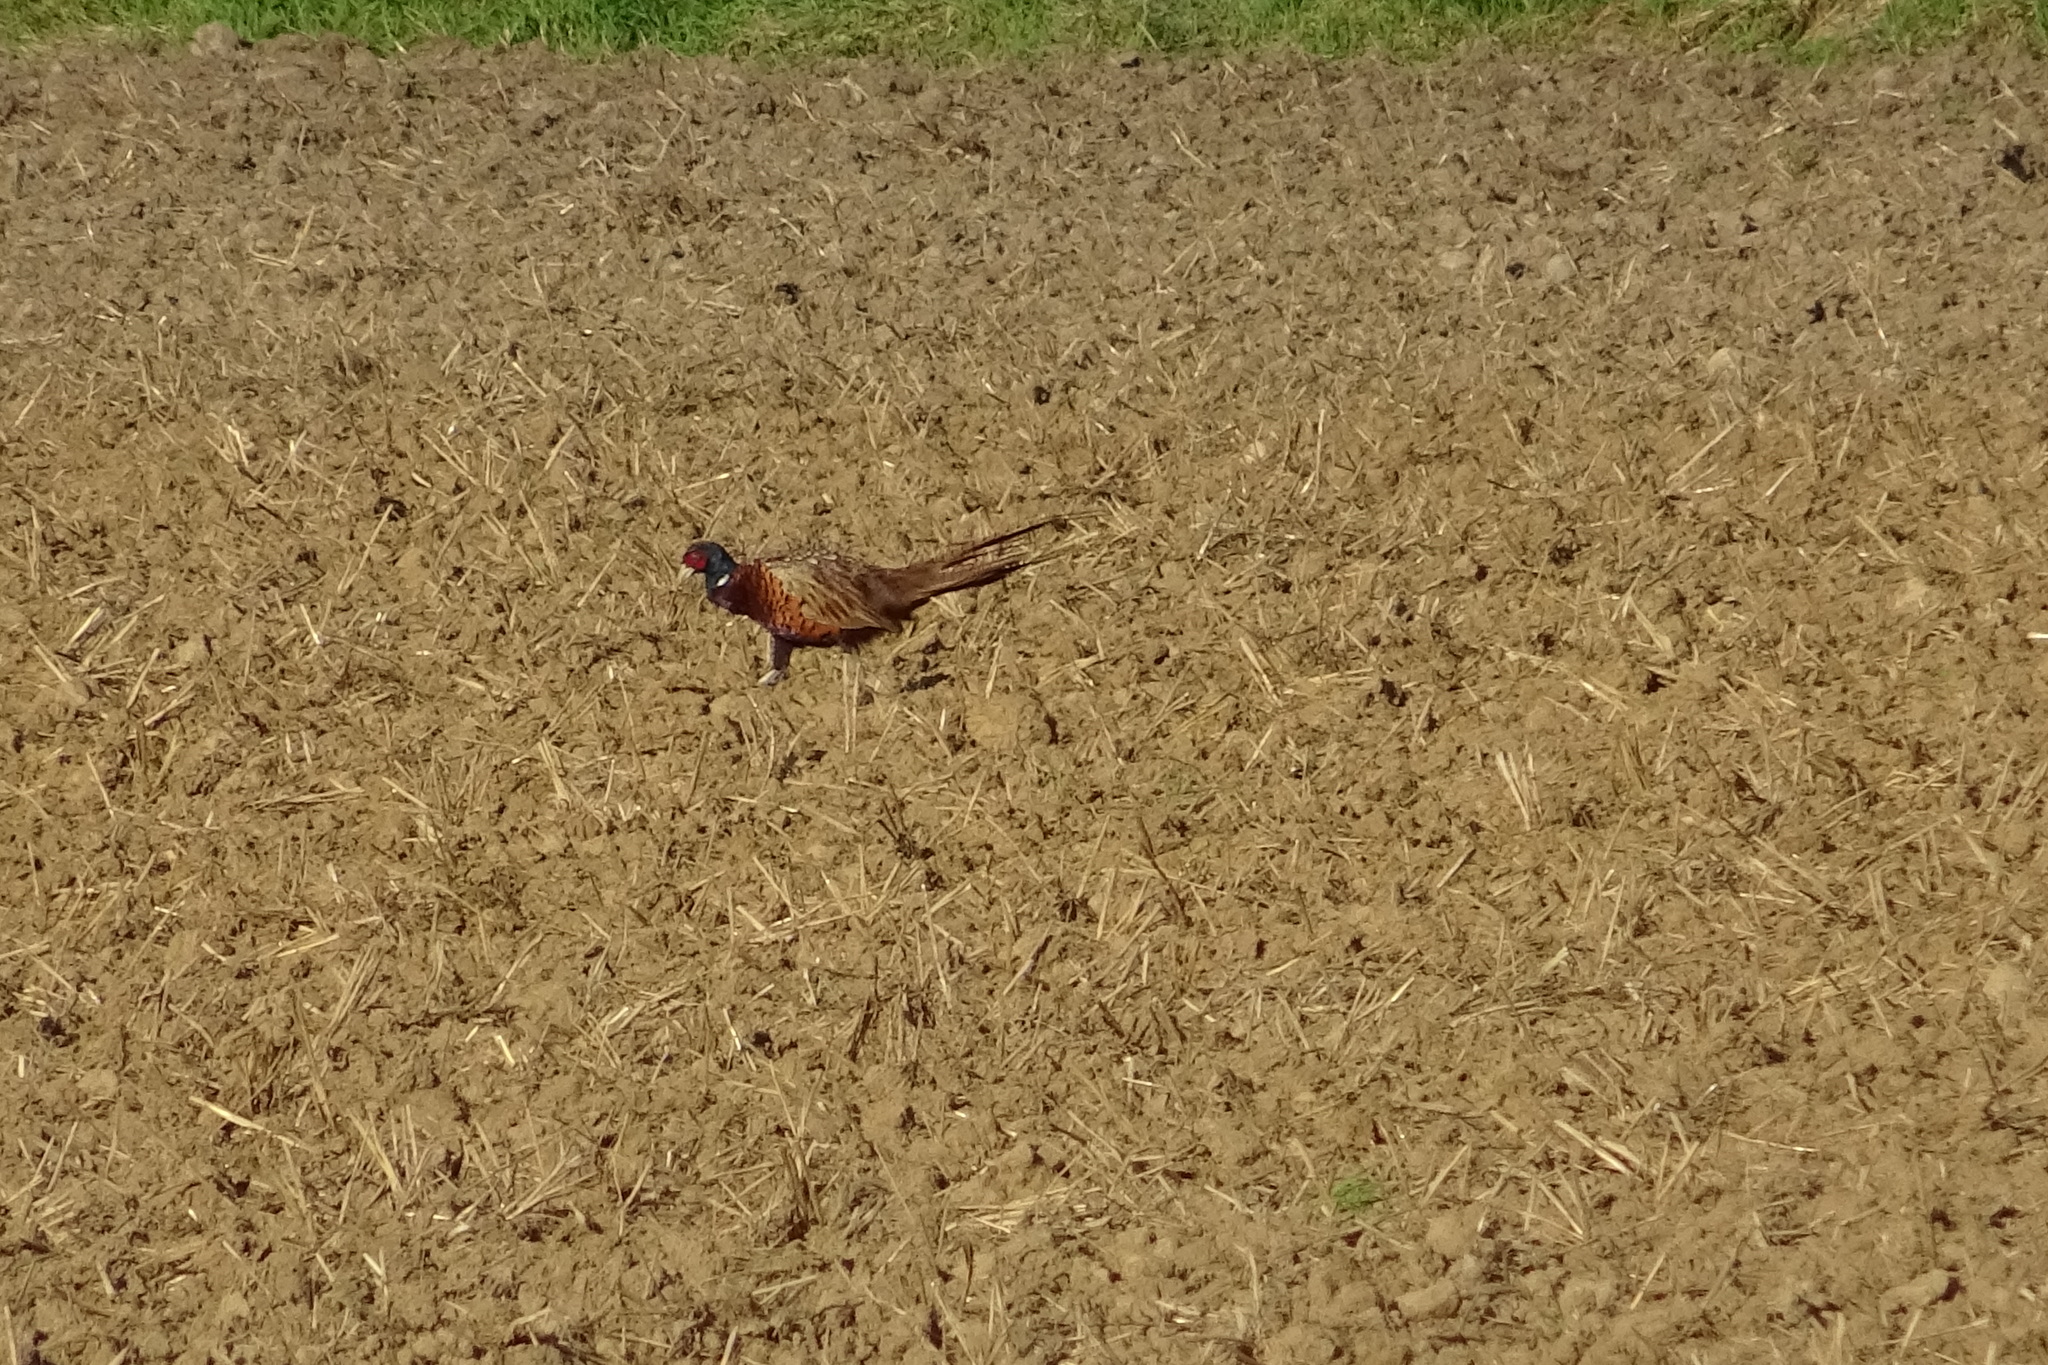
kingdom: Animalia
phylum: Chordata
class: Aves
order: Galliformes
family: Phasianidae
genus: Phasianus
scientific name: Phasianus colchicus
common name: Common pheasant
